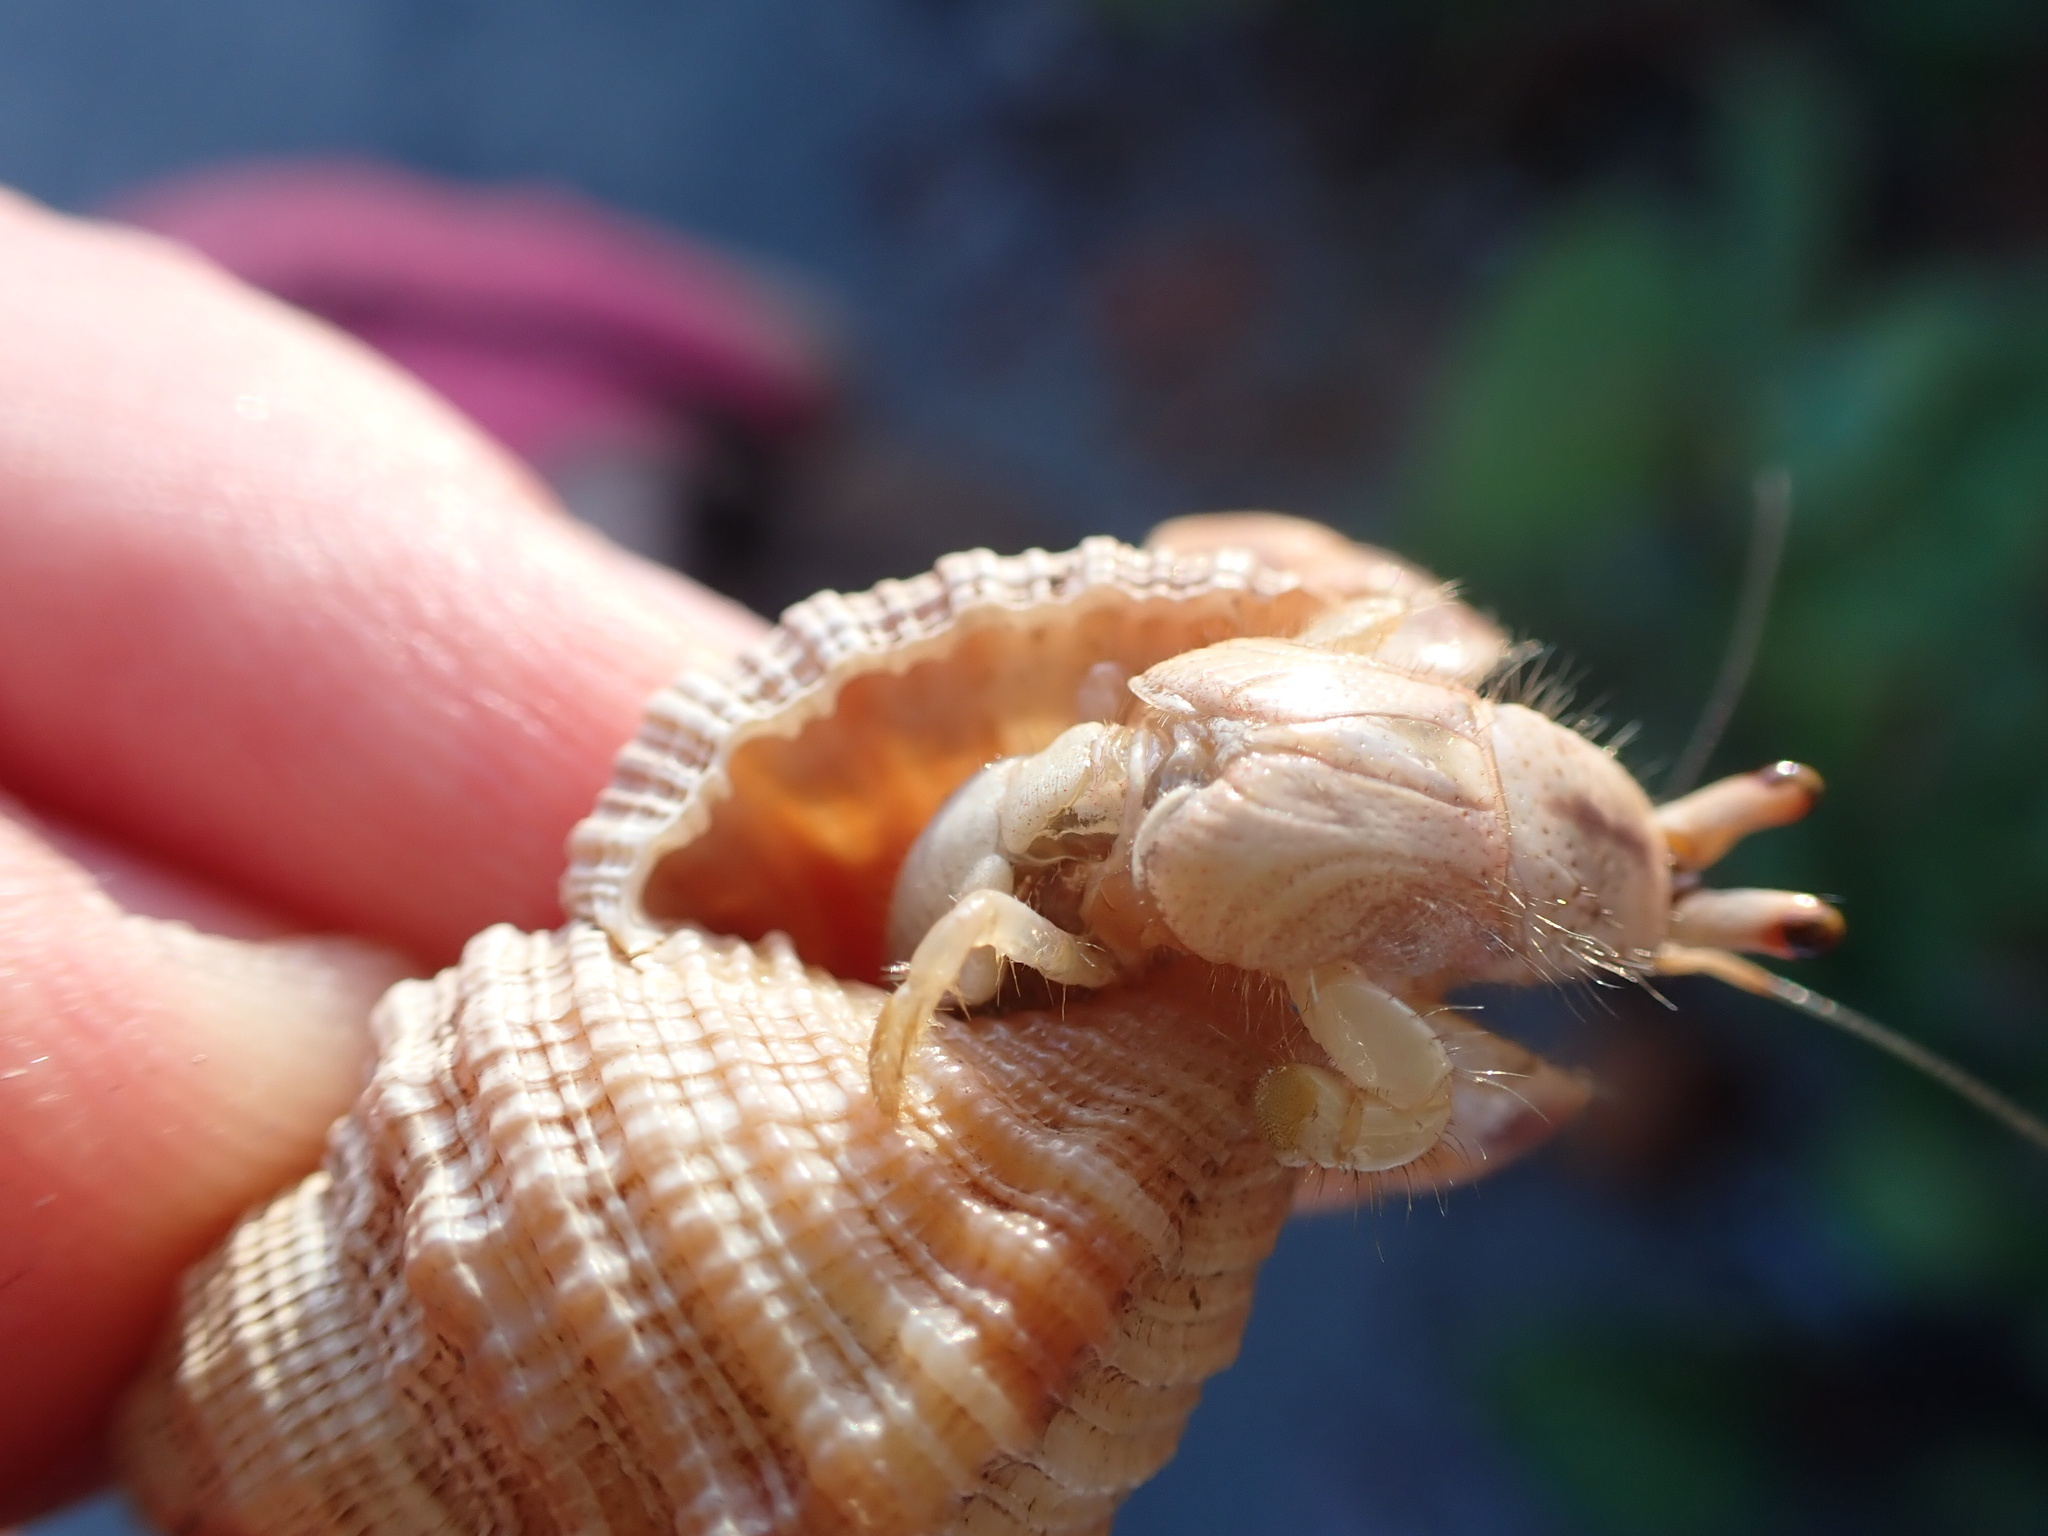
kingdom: Animalia
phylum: Arthropoda
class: Malacostraca
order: Decapoda
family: Coenobitidae
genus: Coenobita
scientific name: Coenobita clypeatus
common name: Caribbean hermit crab
